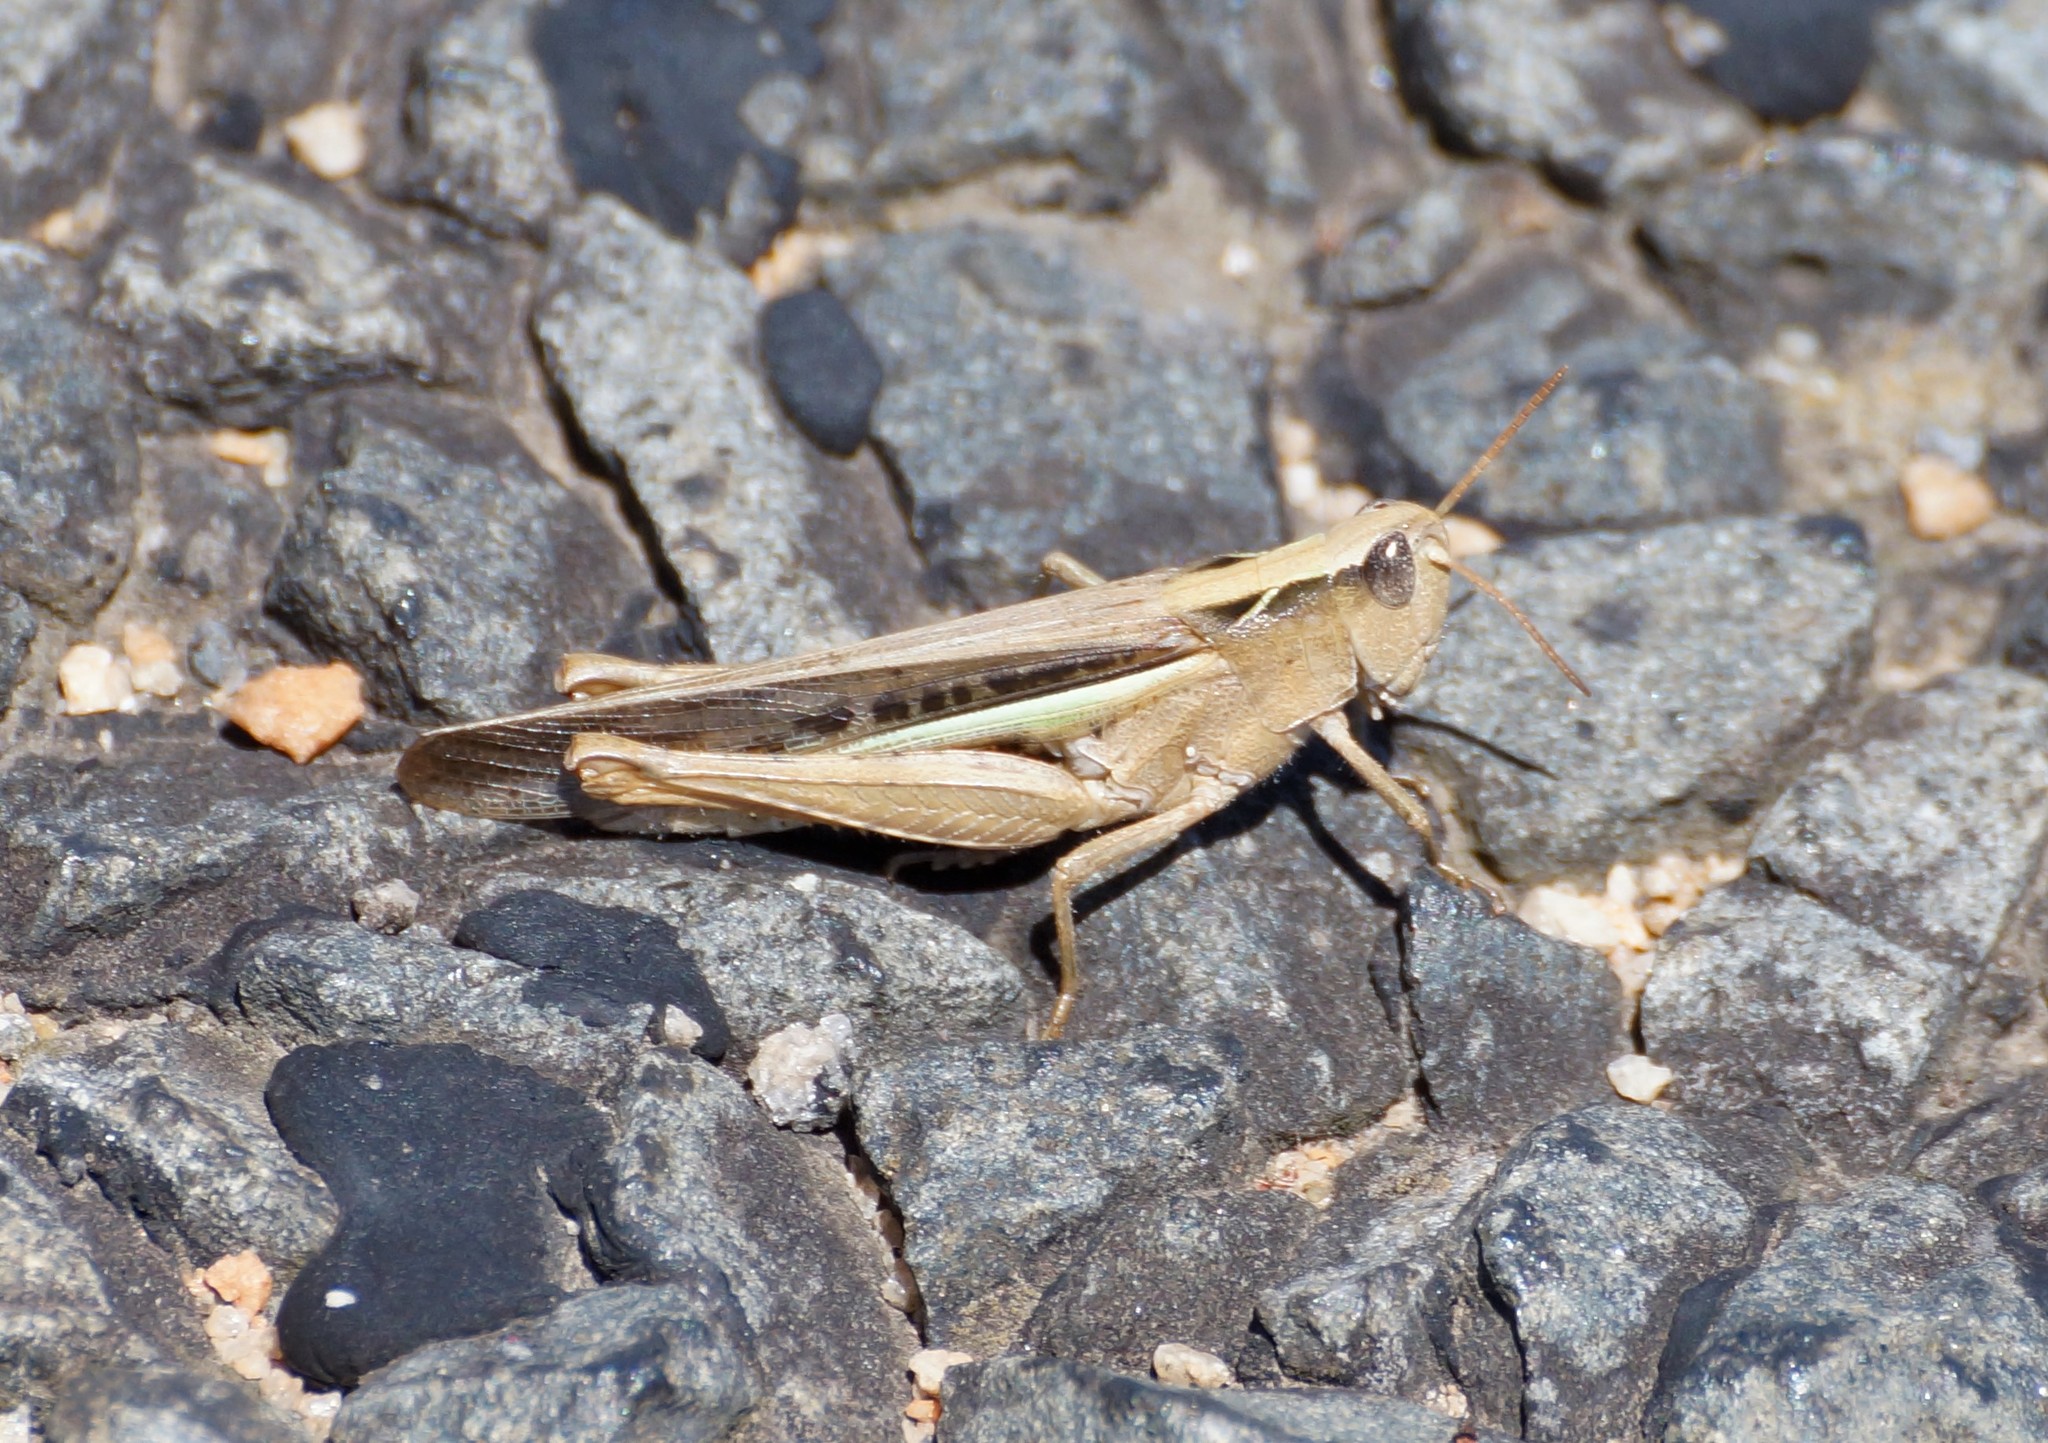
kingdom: Animalia
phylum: Arthropoda
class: Insecta
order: Orthoptera
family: Acrididae
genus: Schizobothrus
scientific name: Schizobothrus flavovittatus
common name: Disappearing grasshopper
